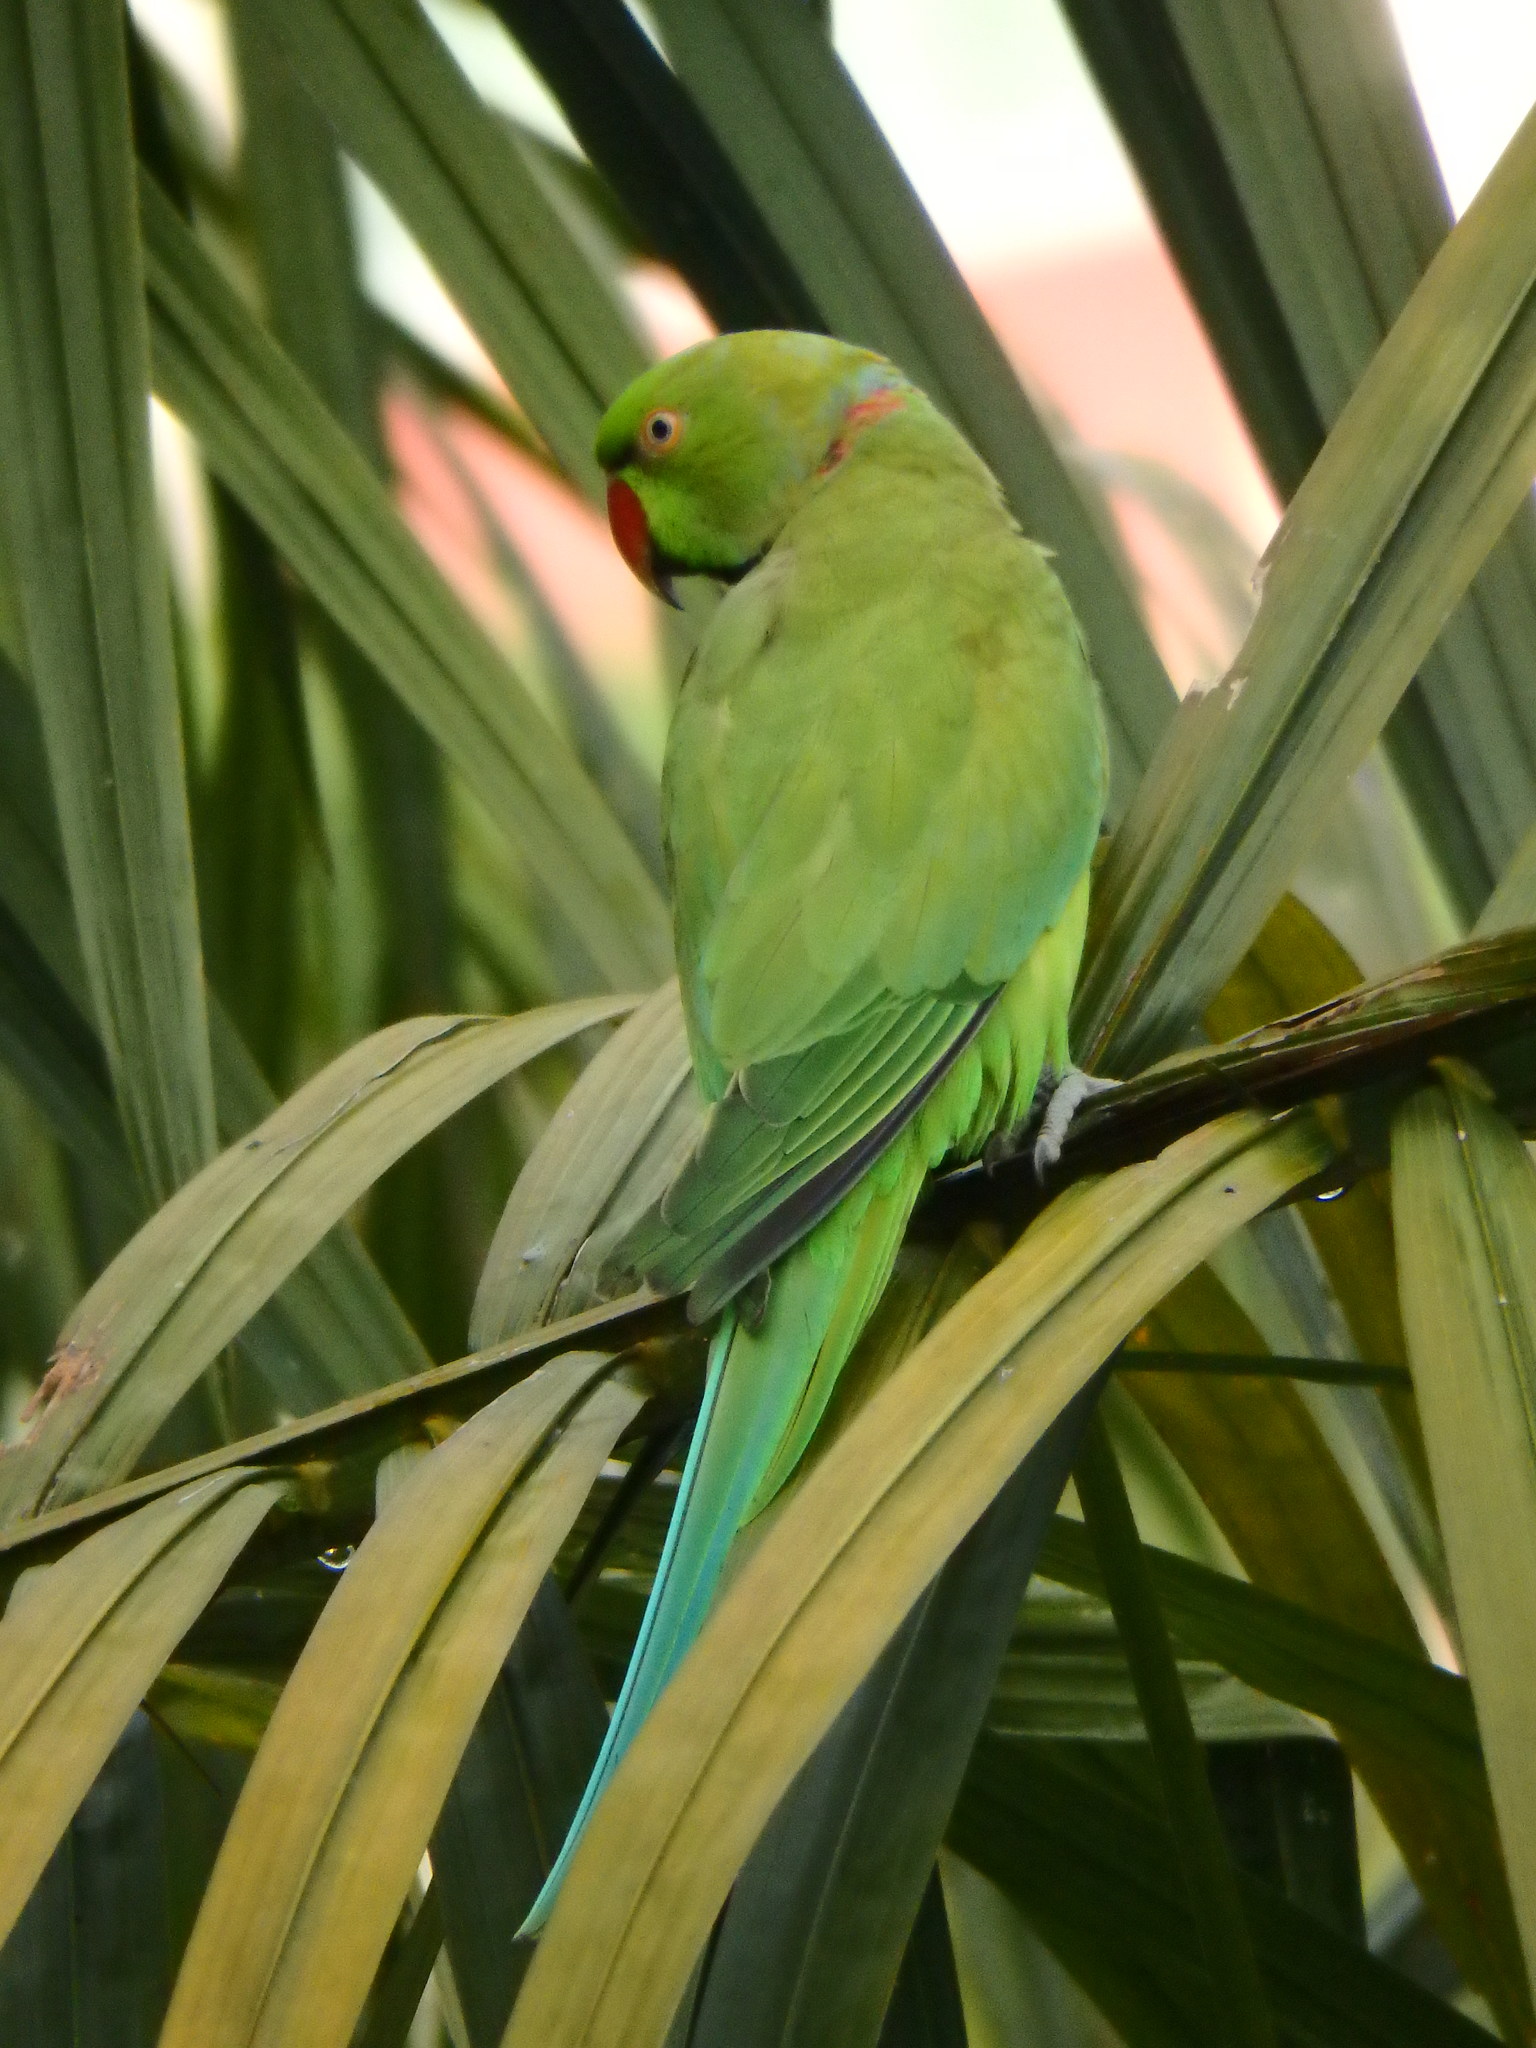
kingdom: Animalia
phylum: Chordata
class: Aves
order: Psittaciformes
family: Psittacidae
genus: Psittacula
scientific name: Psittacula krameri
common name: Rose-ringed parakeet
